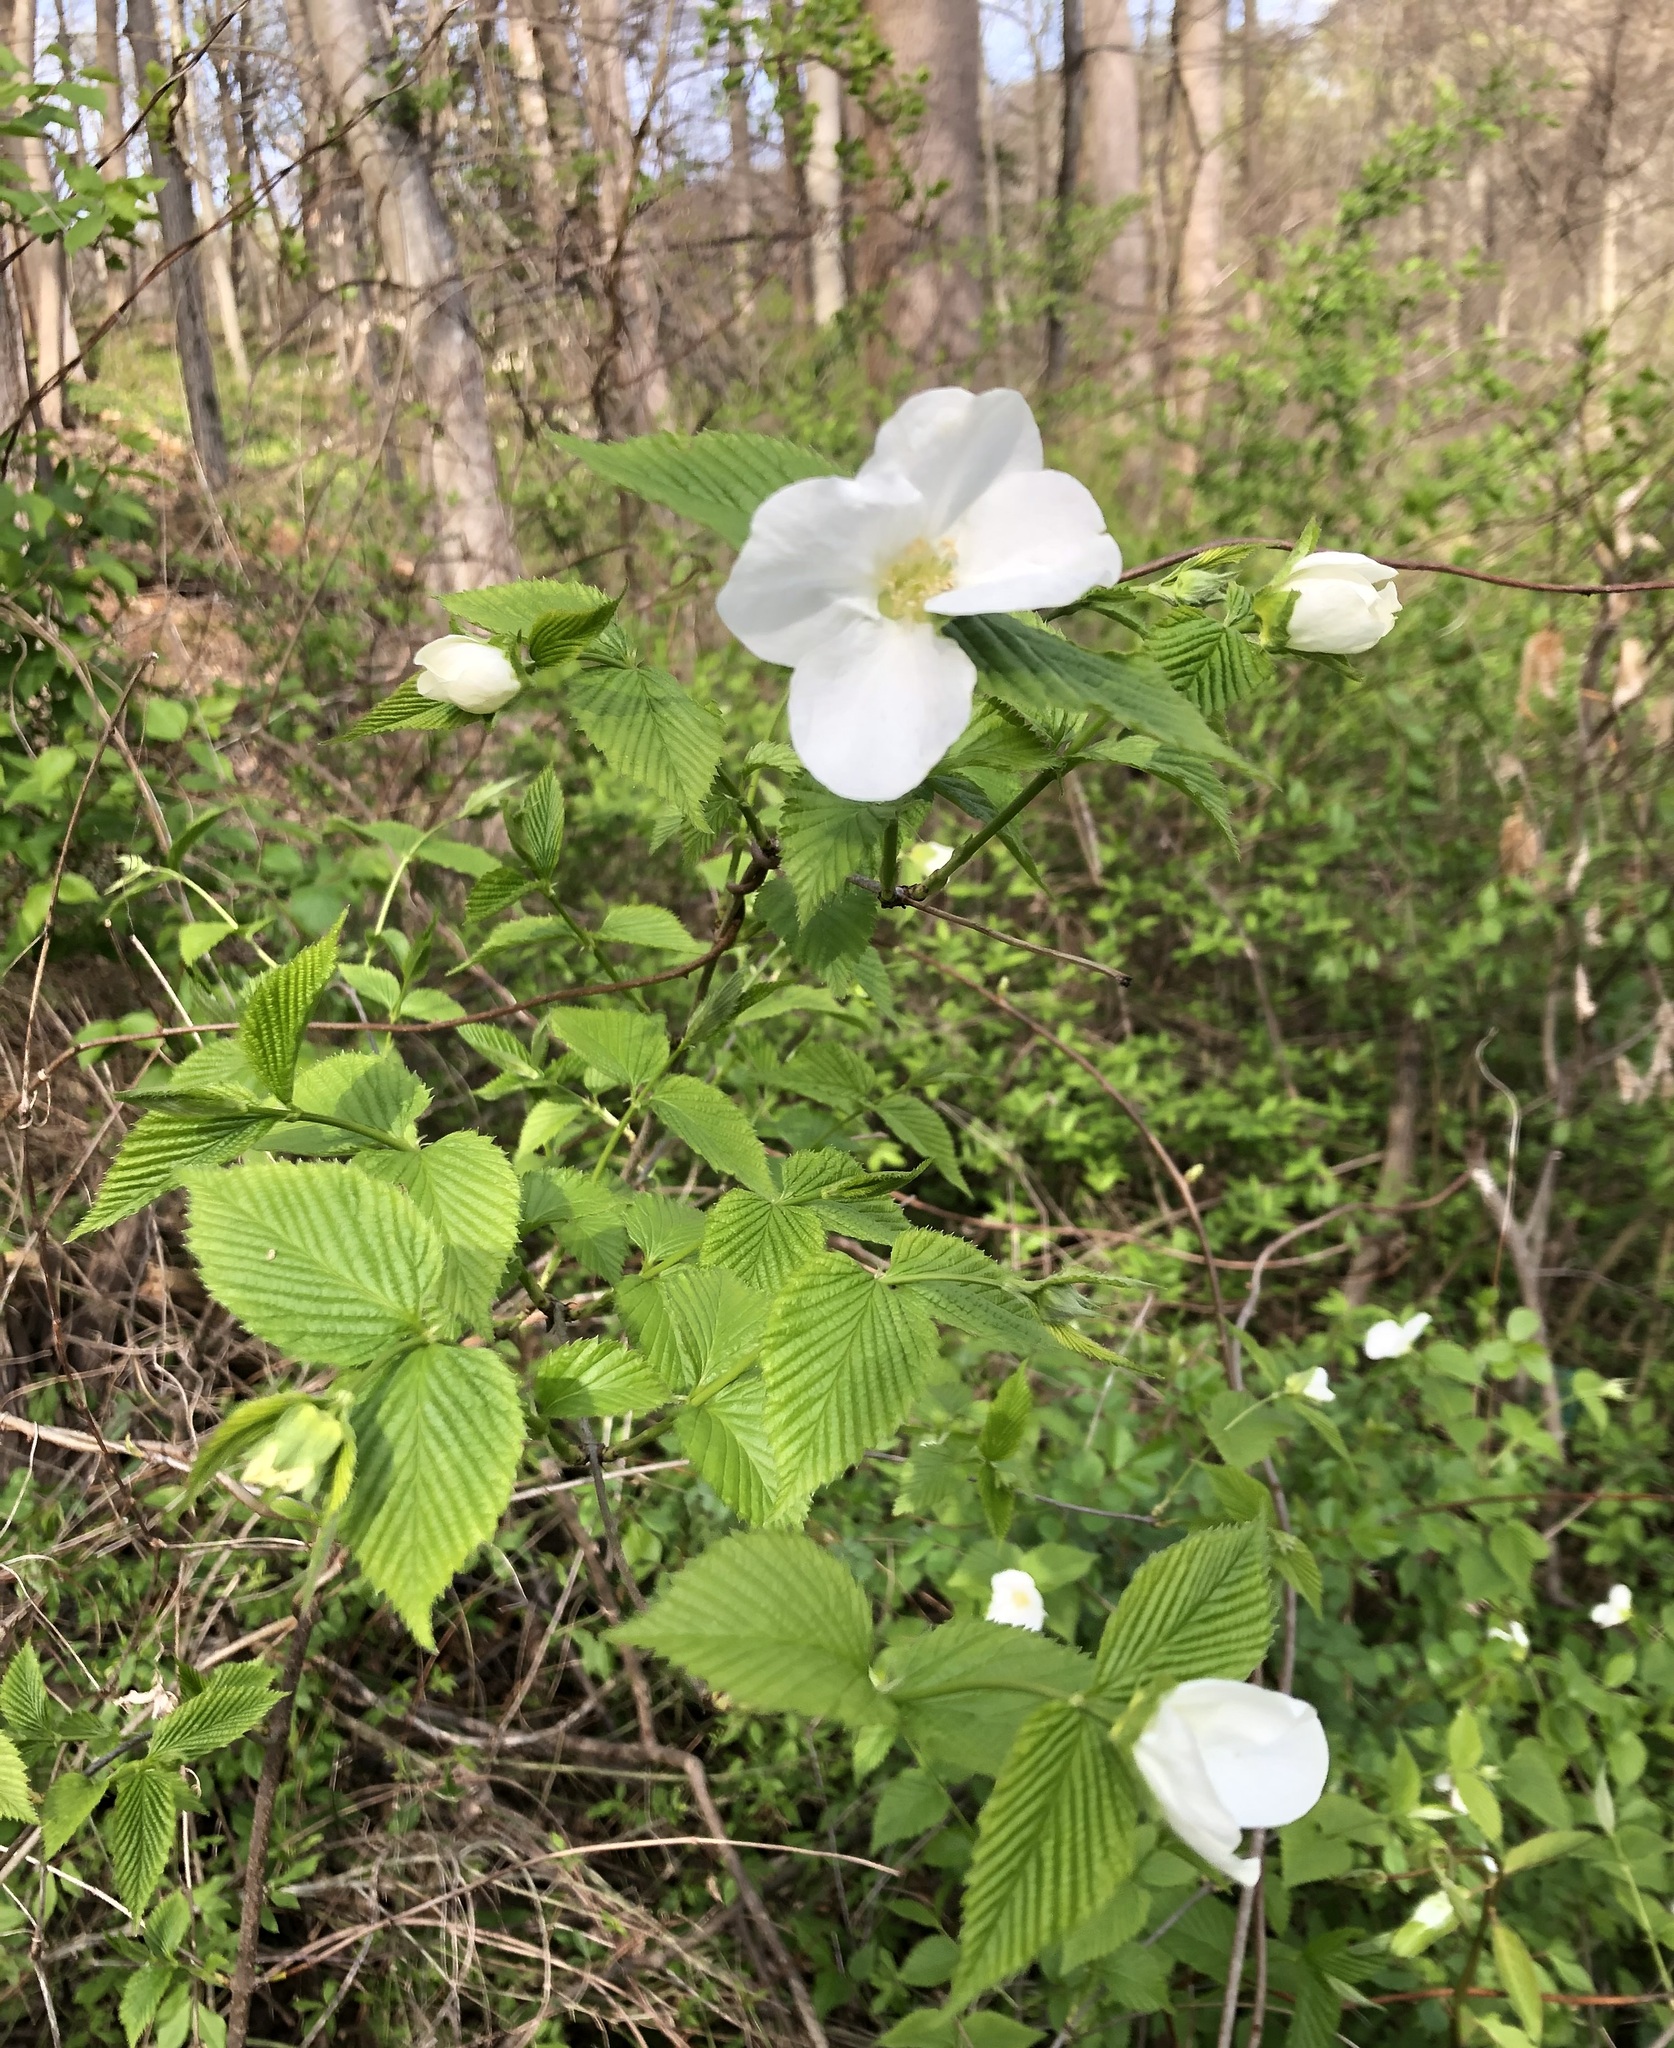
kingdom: Plantae
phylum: Tracheophyta
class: Magnoliopsida
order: Rosales
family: Rosaceae
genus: Rhodotypos
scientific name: Rhodotypos scandens
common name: Jetbead
